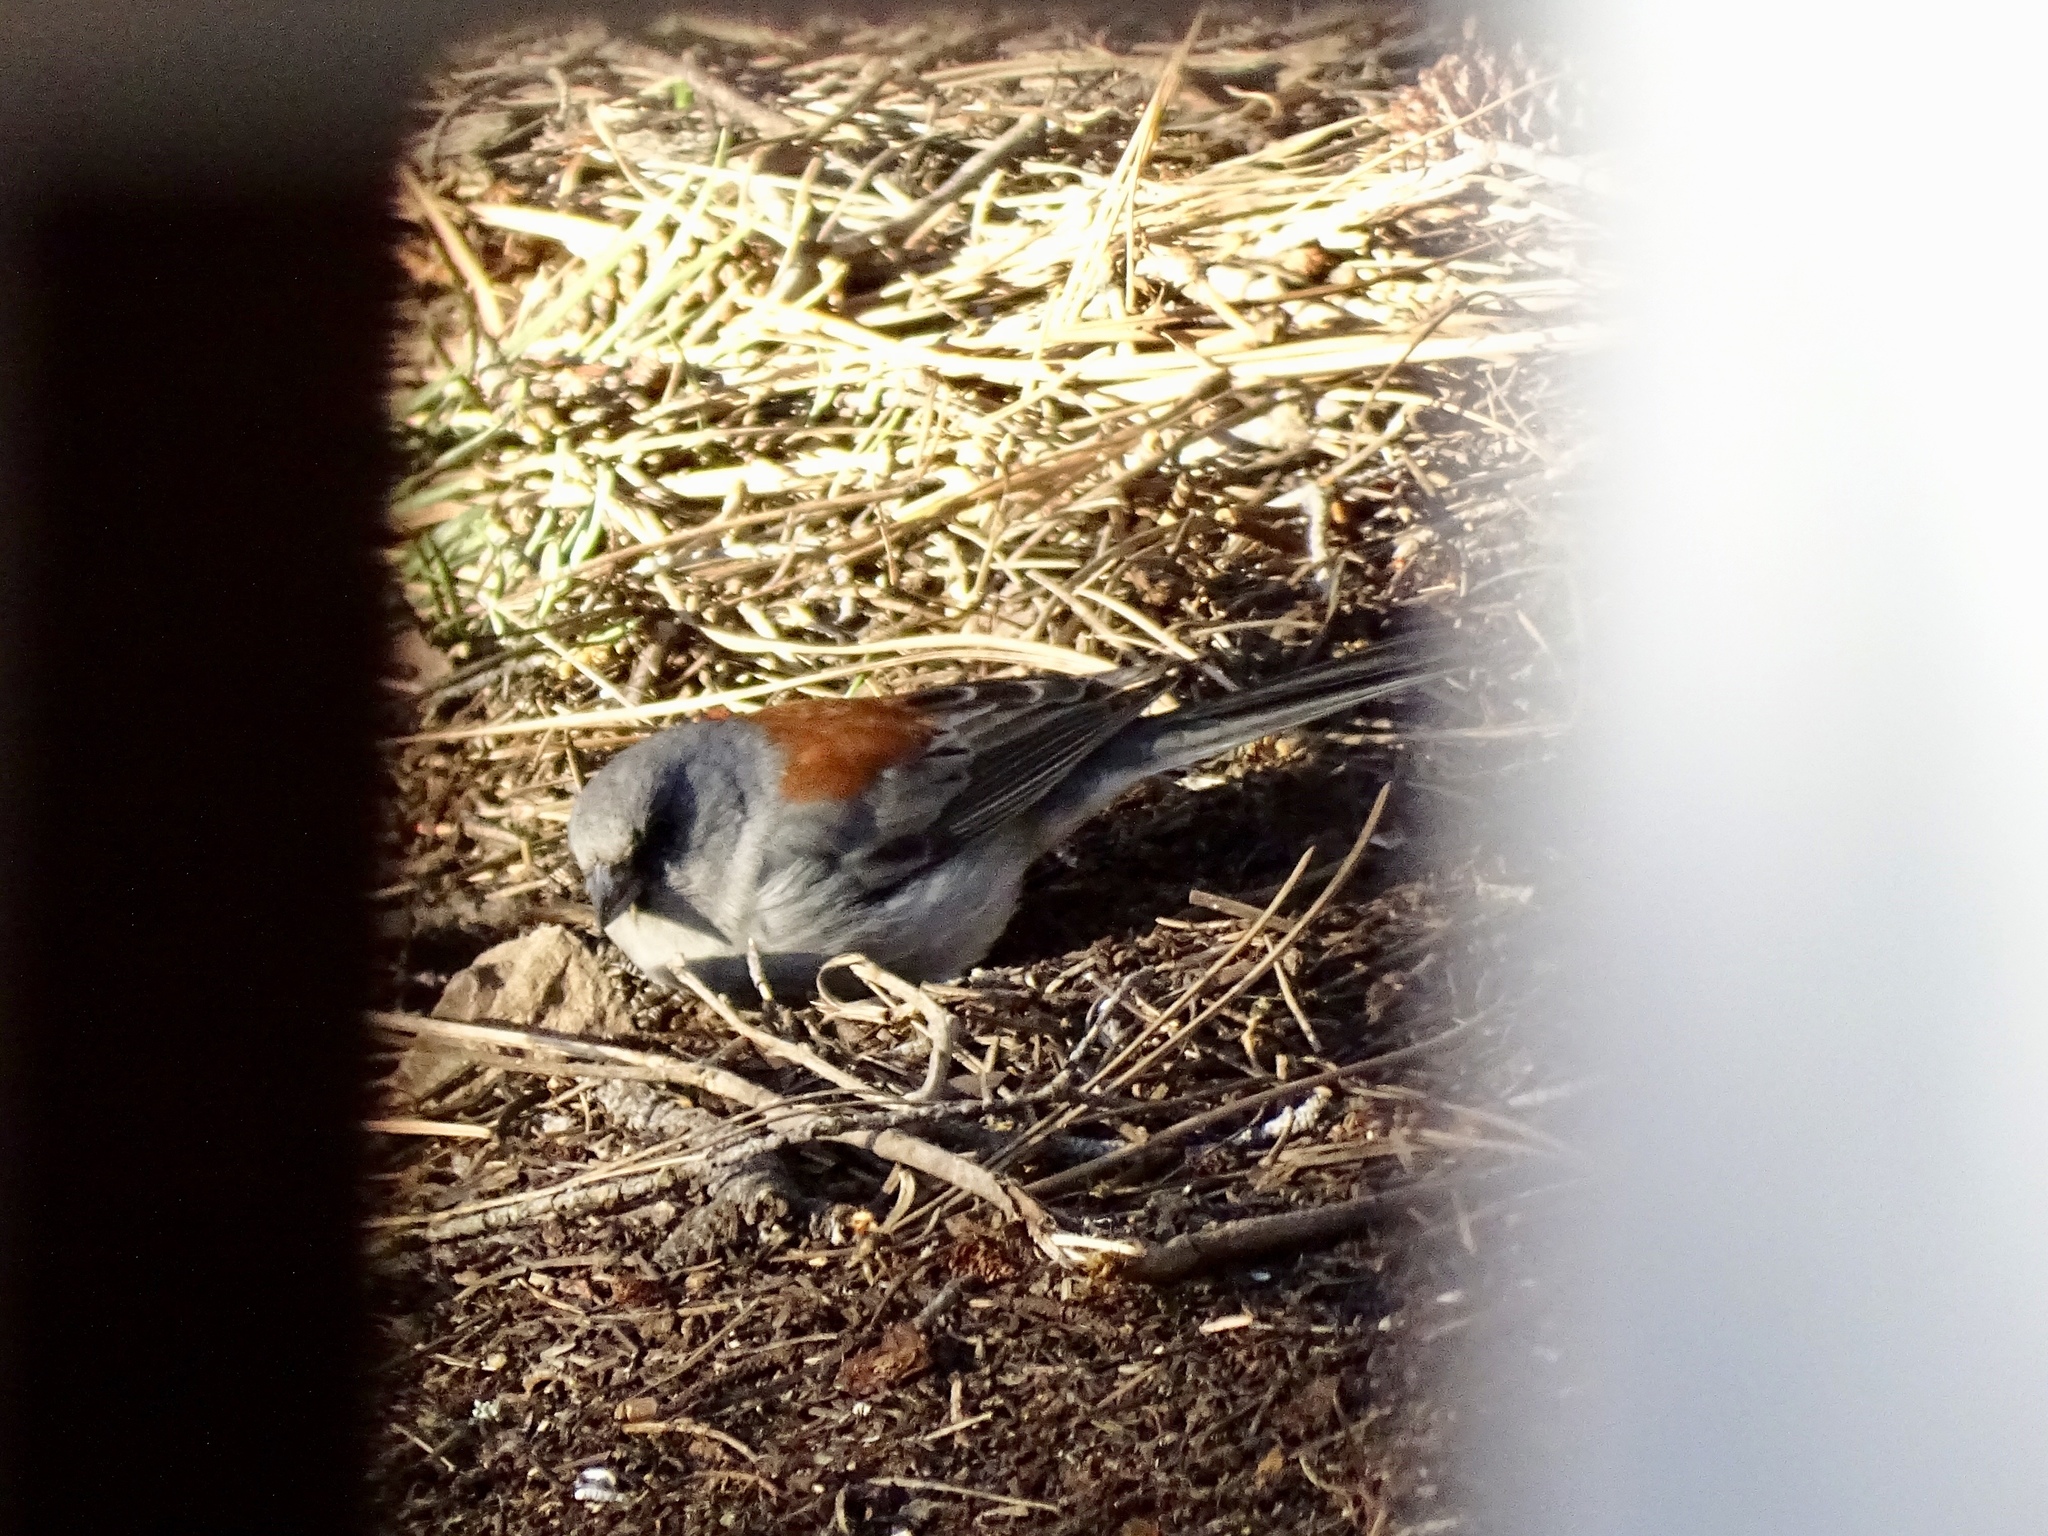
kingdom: Animalia
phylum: Chordata
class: Aves
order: Passeriformes
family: Passerellidae
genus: Junco
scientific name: Junco hyemalis
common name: Dark-eyed junco
